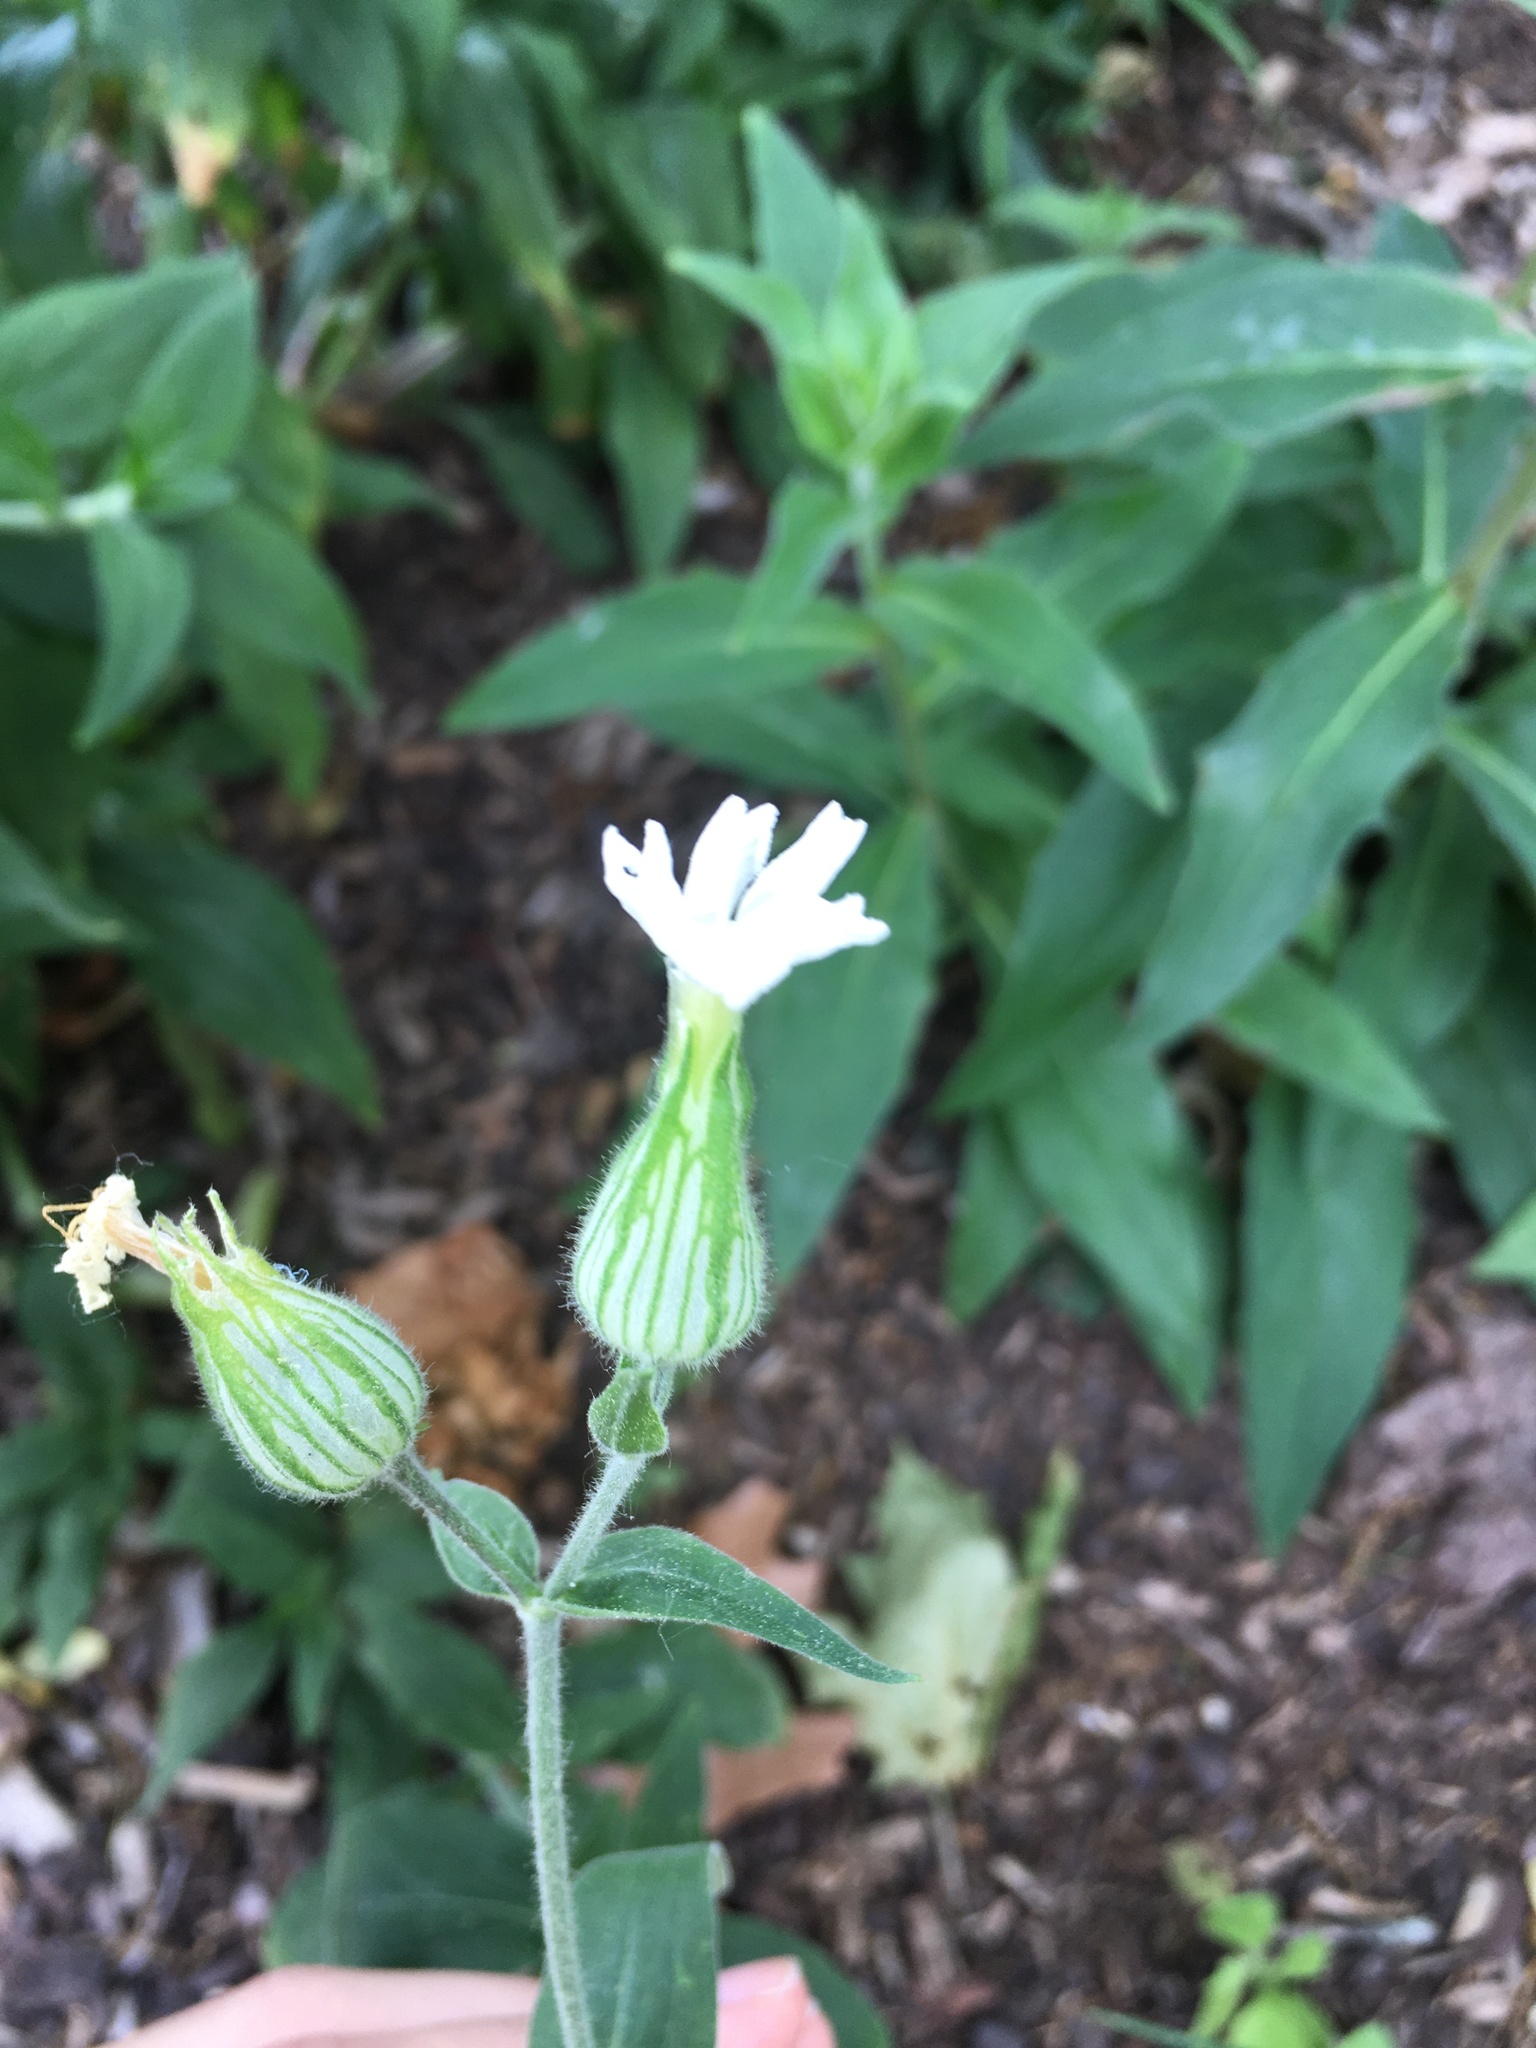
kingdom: Plantae
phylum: Tracheophyta
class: Magnoliopsida
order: Caryophyllales
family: Caryophyllaceae
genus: Silene
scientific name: Silene latifolia
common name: White campion
